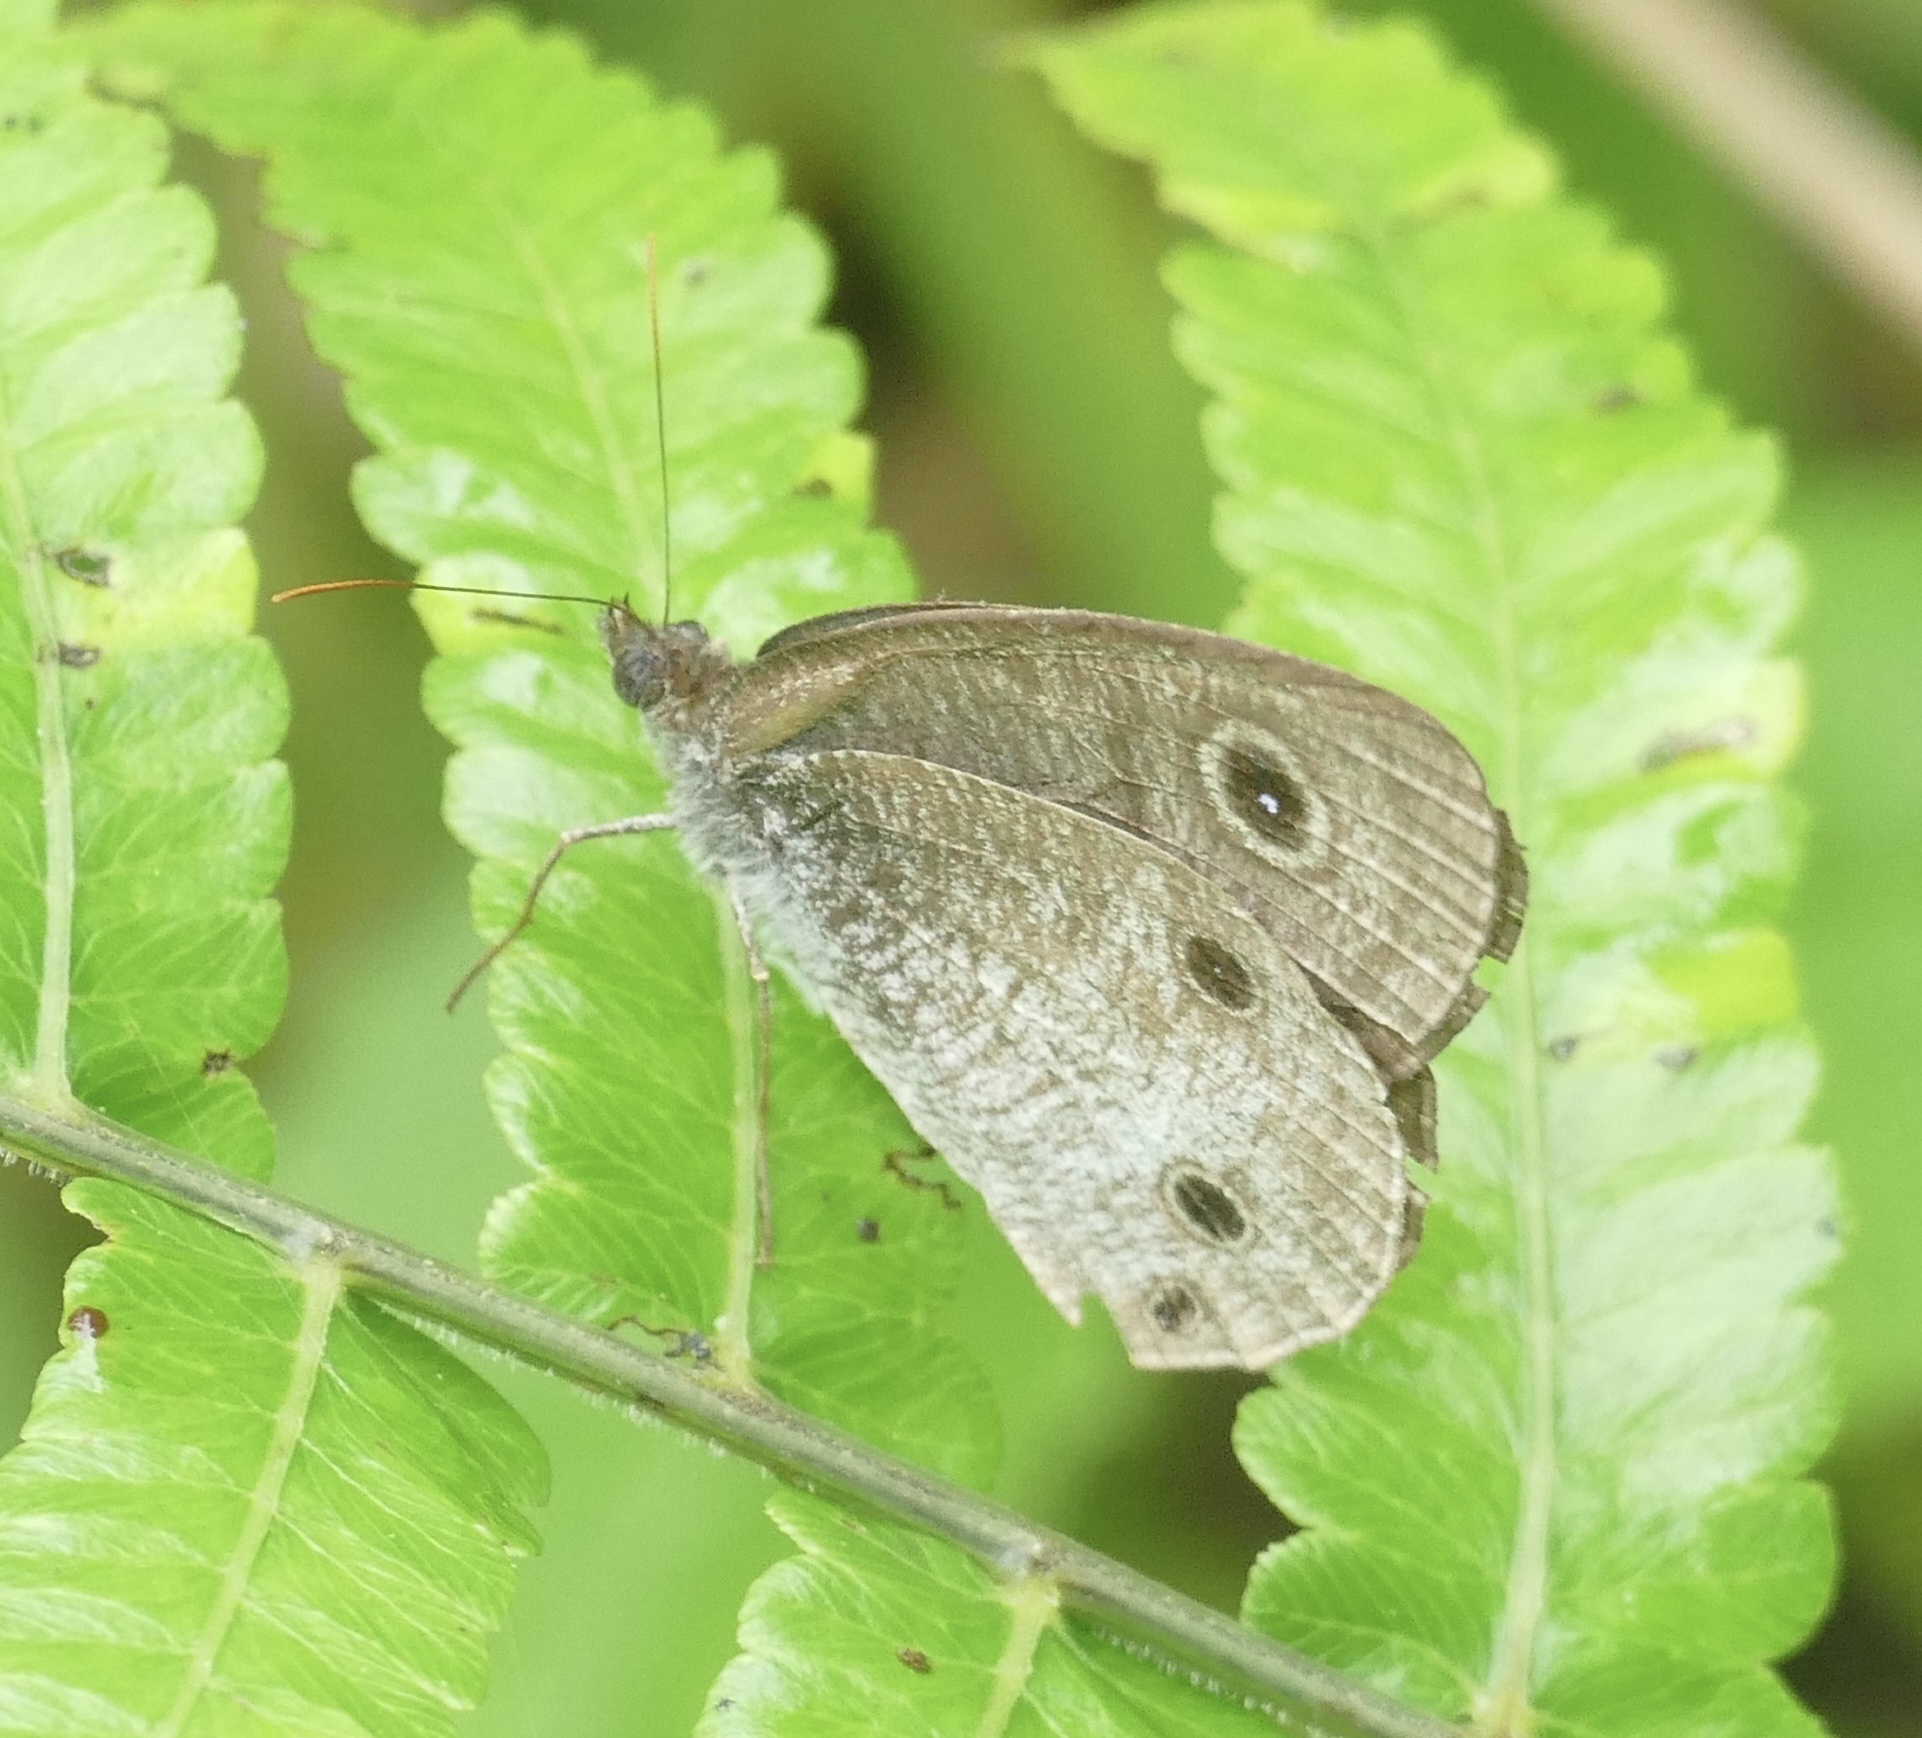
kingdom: Animalia
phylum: Arthropoda
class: Insecta
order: Lepidoptera
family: Nymphalidae
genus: Ypthima
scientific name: Ypthima pandocus
